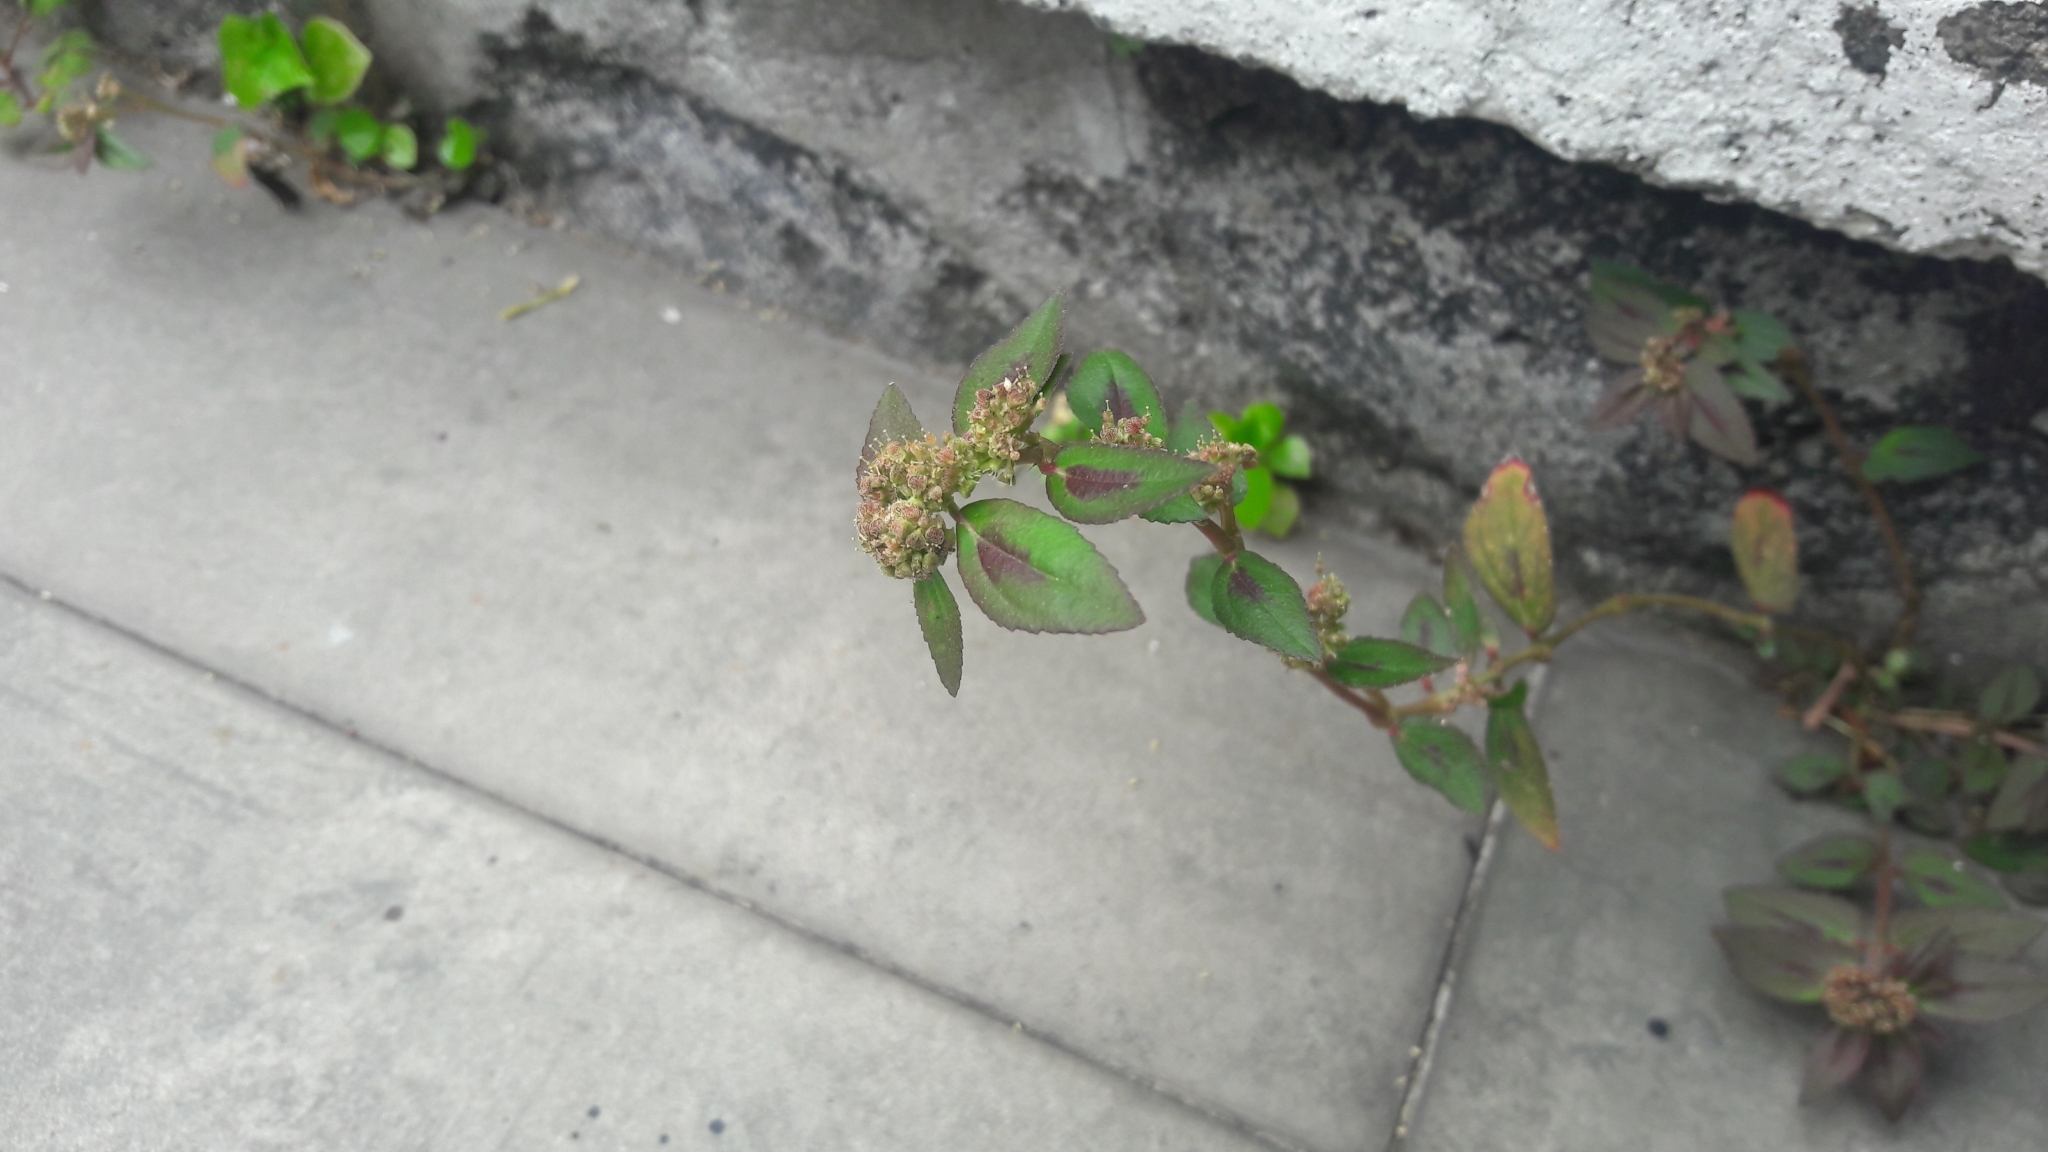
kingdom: Plantae
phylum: Tracheophyta
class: Magnoliopsida
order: Malpighiales
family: Euphorbiaceae
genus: Euphorbia
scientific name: Euphorbia hirta
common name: Pillpod sandmat
